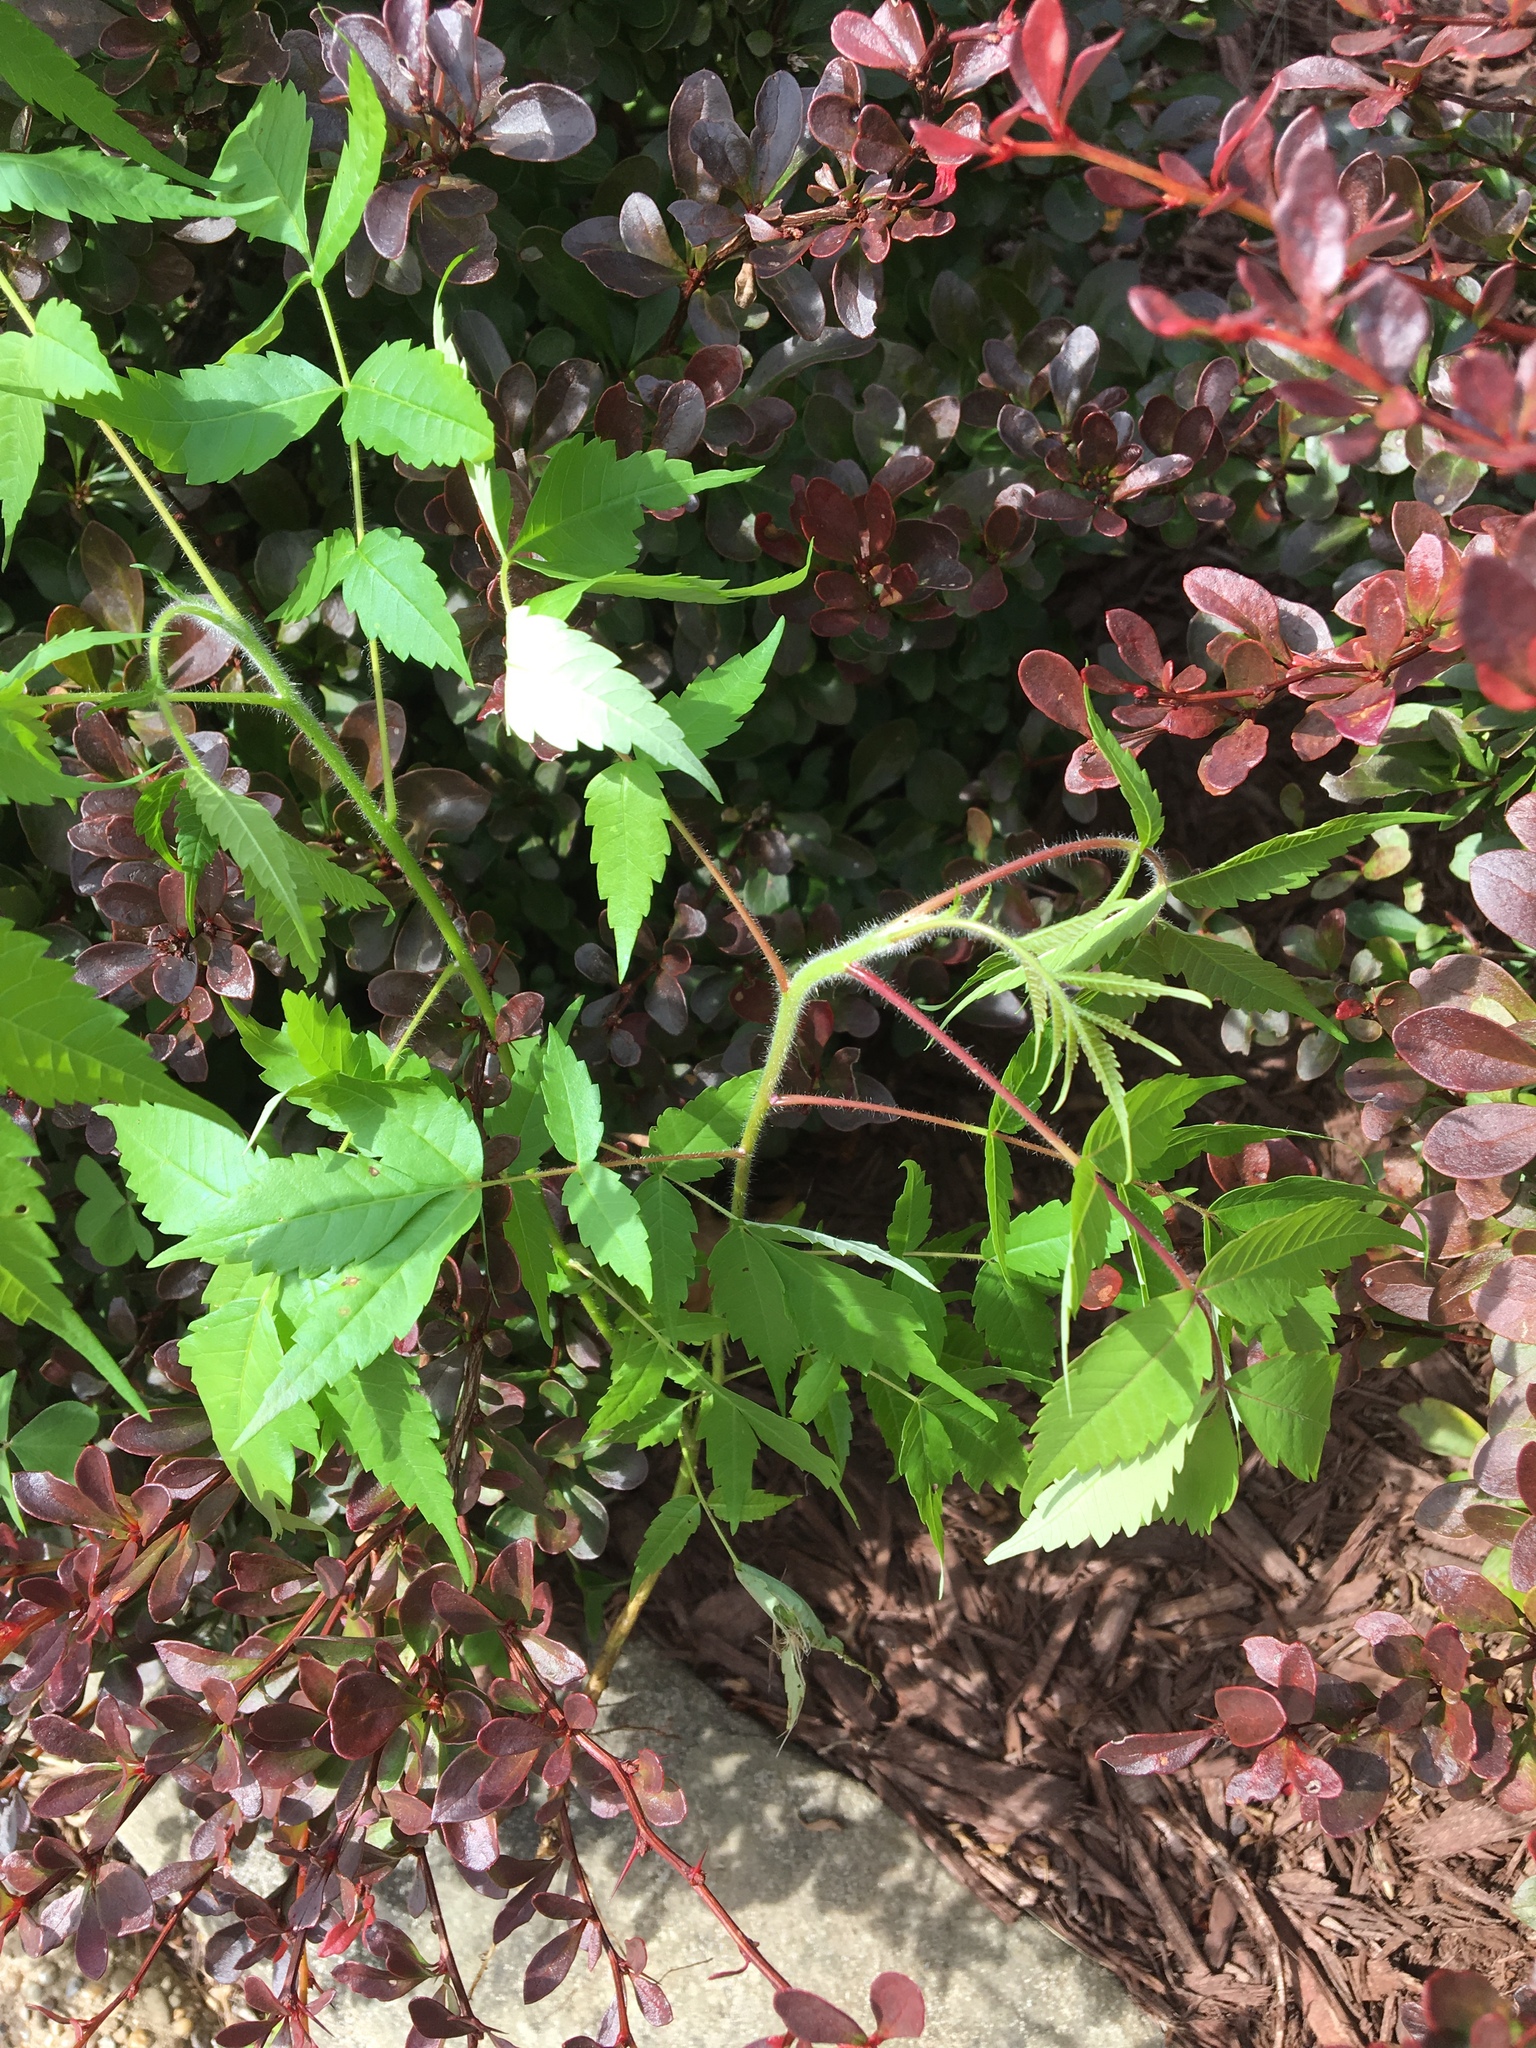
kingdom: Plantae
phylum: Tracheophyta
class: Magnoliopsida
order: Sapindales
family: Anacardiaceae
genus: Rhus
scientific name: Rhus typhina
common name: Staghorn sumac
